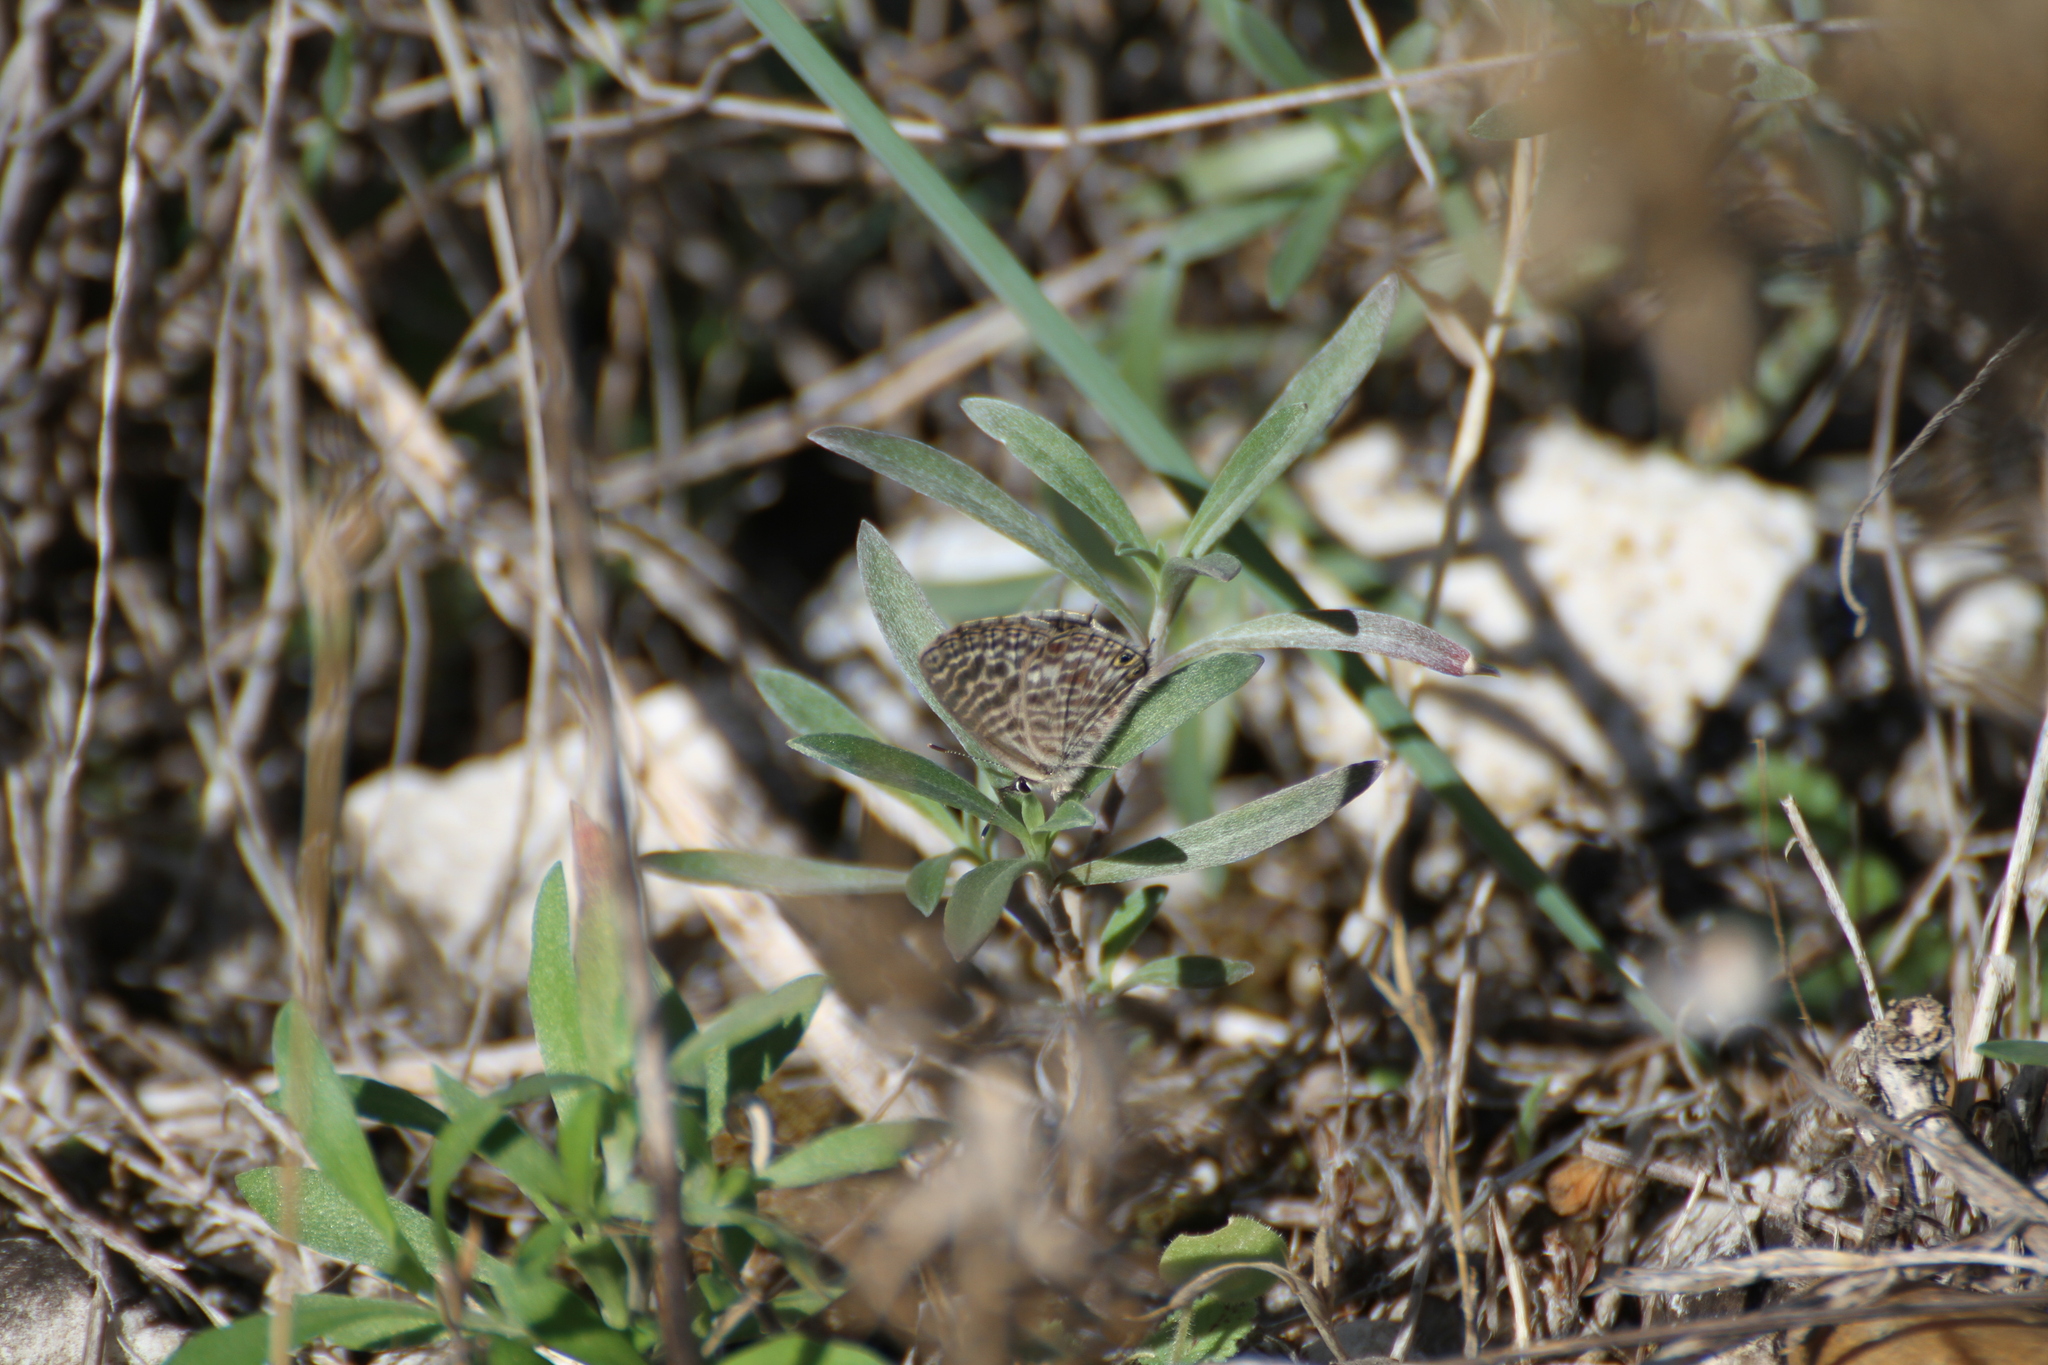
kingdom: Animalia
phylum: Arthropoda
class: Insecta
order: Lepidoptera
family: Lycaenidae
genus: Leptotes
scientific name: Leptotes pirithous
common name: Lang's short-tailed blue
